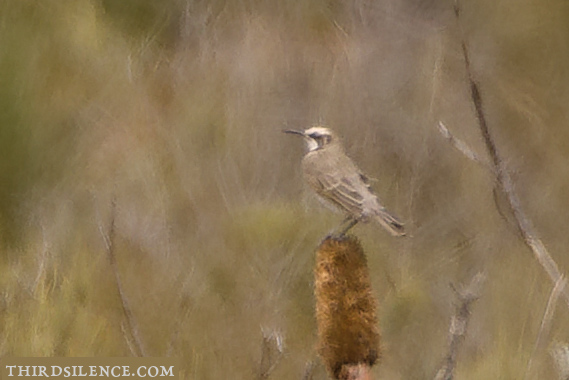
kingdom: Animalia
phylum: Chordata
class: Aves
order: Passeriformes
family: Meliphagidae
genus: Gliciphila
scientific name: Gliciphila melanops
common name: Tawny-crowned honeyeater
